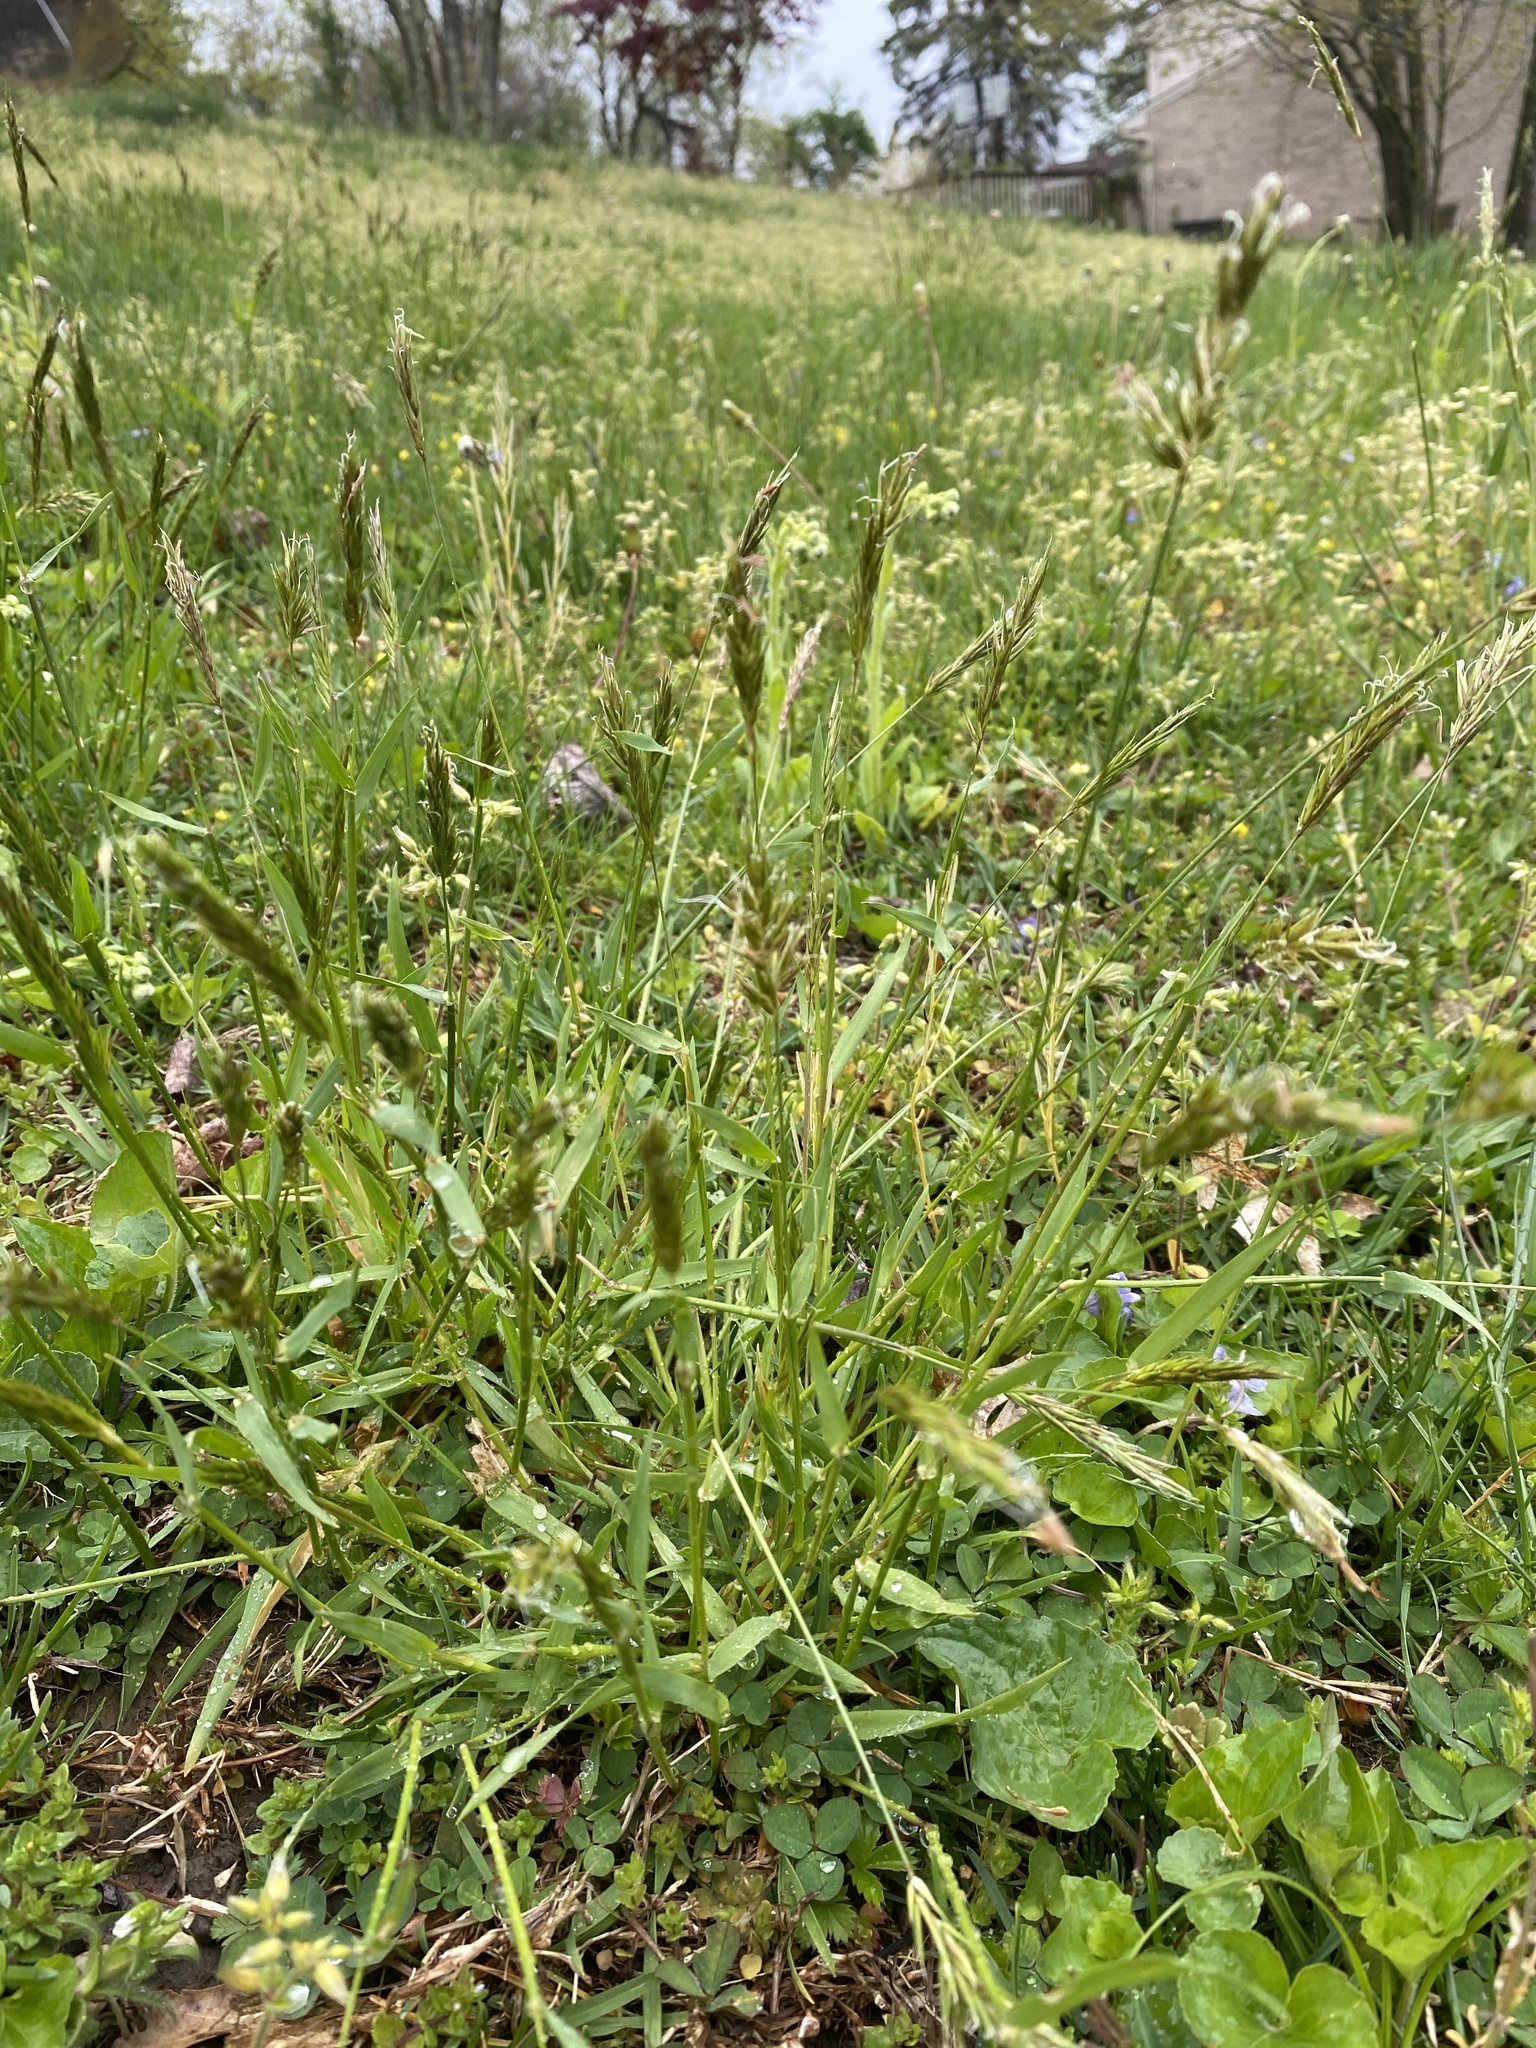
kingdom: Plantae
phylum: Tracheophyta
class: Liliopsida
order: Poales
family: Poaceae
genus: Anthoxanthum
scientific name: Anthoxanthum odoratum
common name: Sweet vernalgrass
